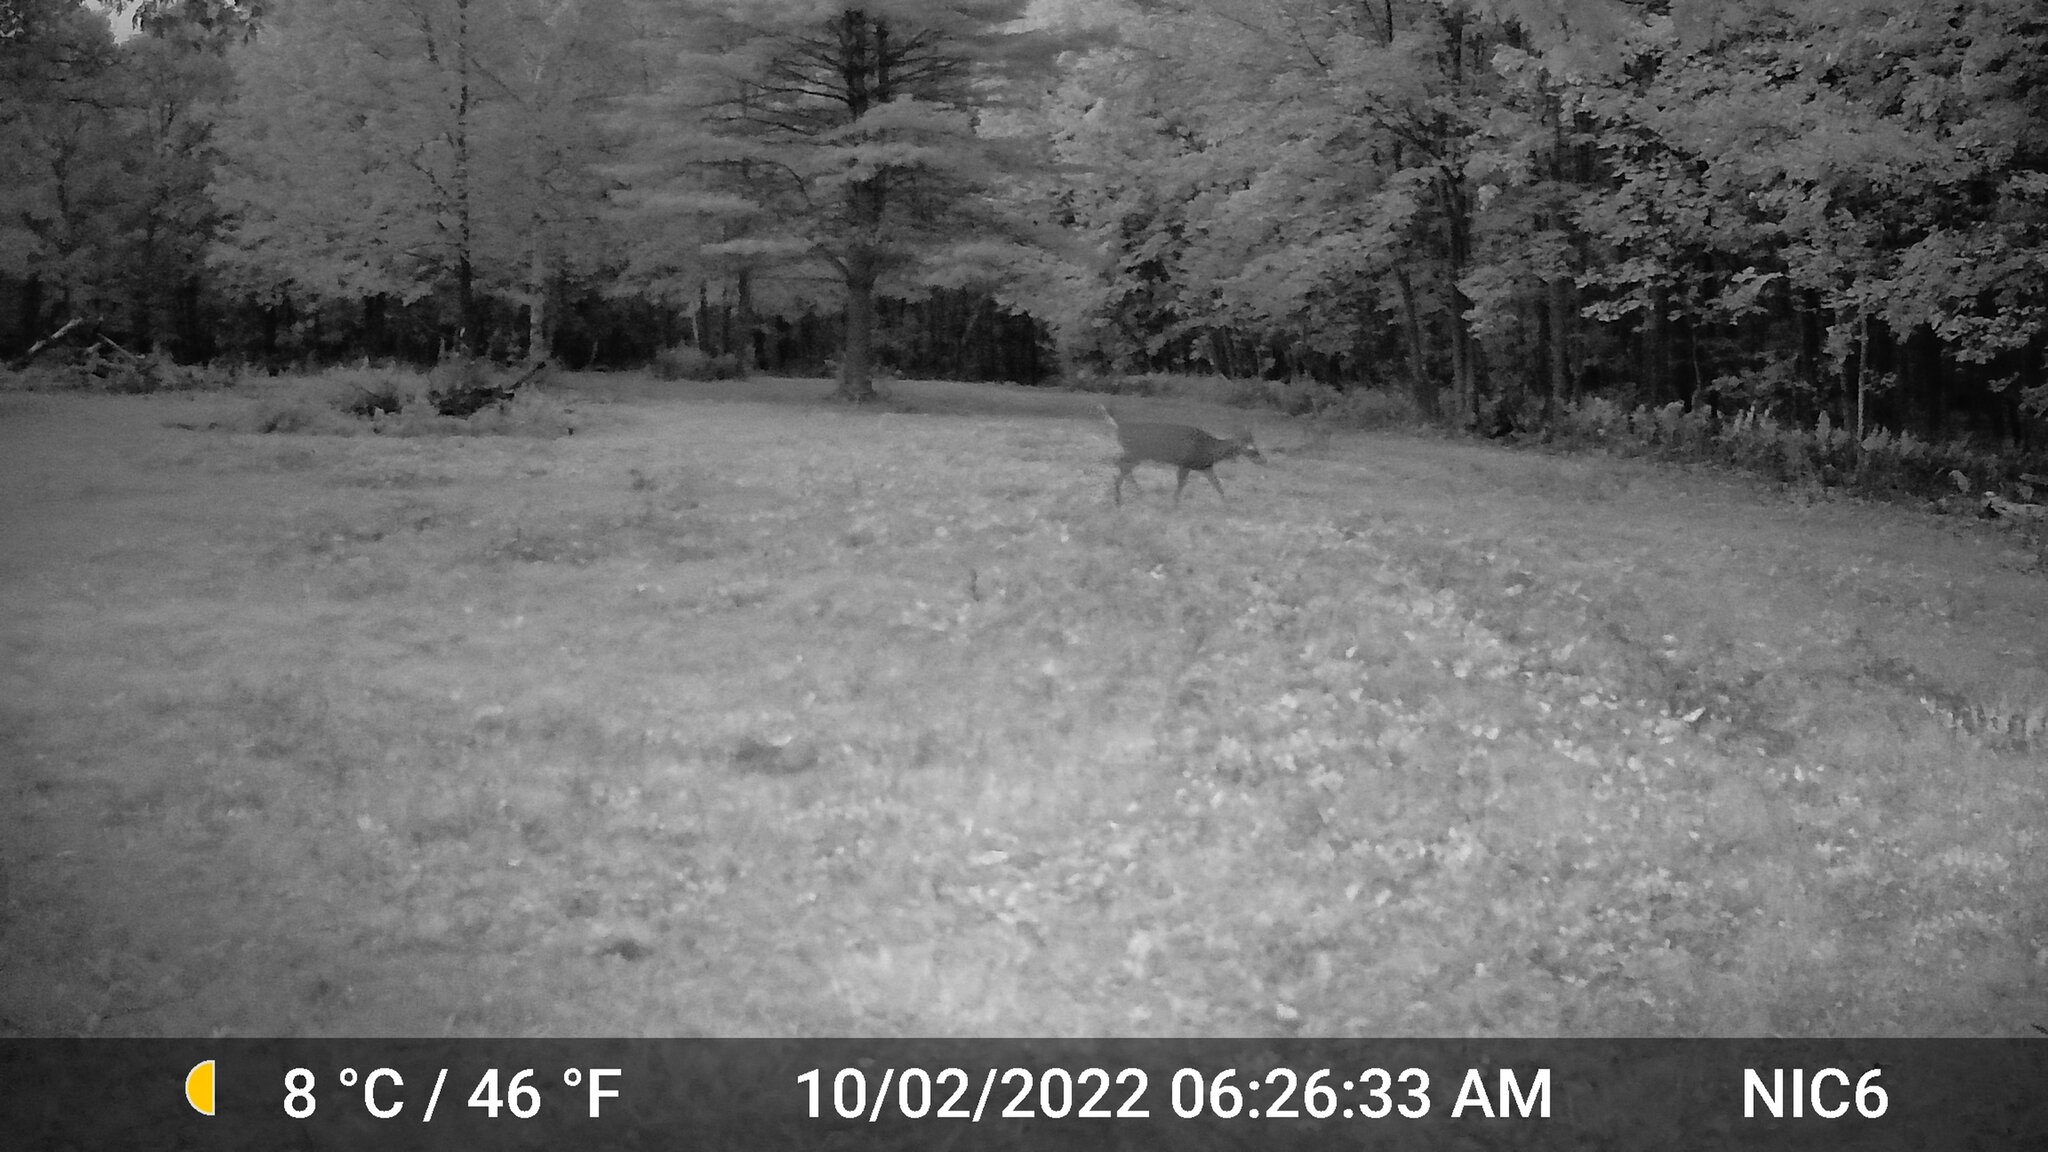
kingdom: Animalia
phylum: Chordata
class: Mammalia
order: Artiodactyla
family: Cervidae
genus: Odocoileus
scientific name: Odocoileus virginianus
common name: White-tailed deer
